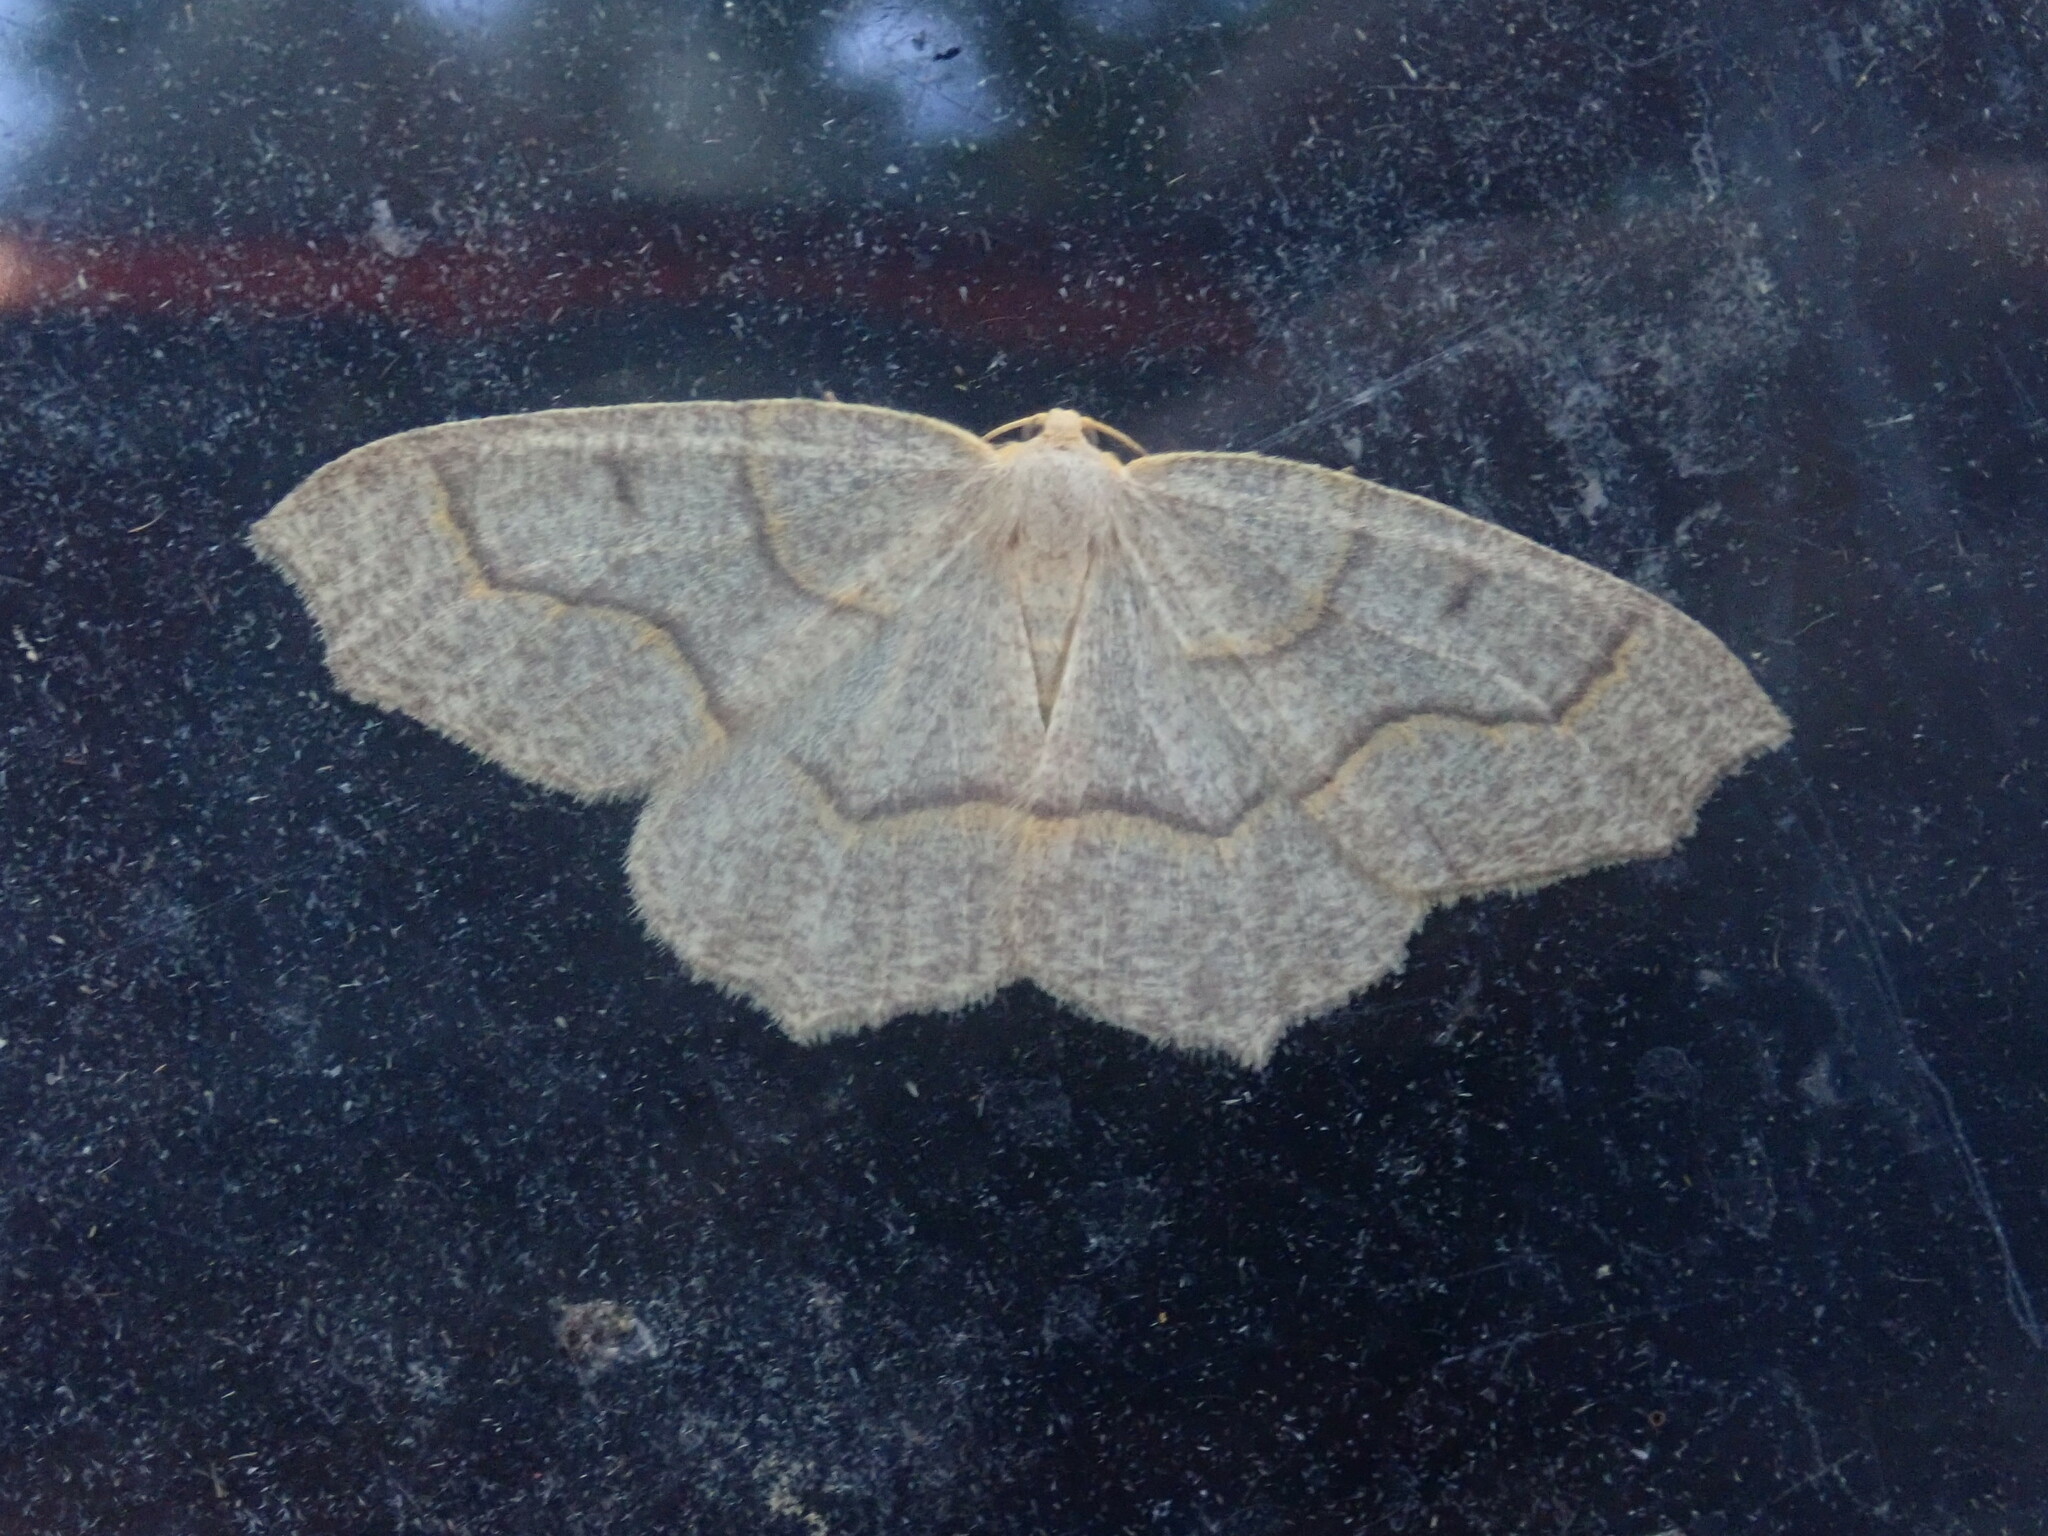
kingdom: Animalia
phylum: Arthropoda
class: Insecta
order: Lepidoptera
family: Geometridae
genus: Lambdina
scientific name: Lambdina fiscellaria
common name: Hemlock looper
